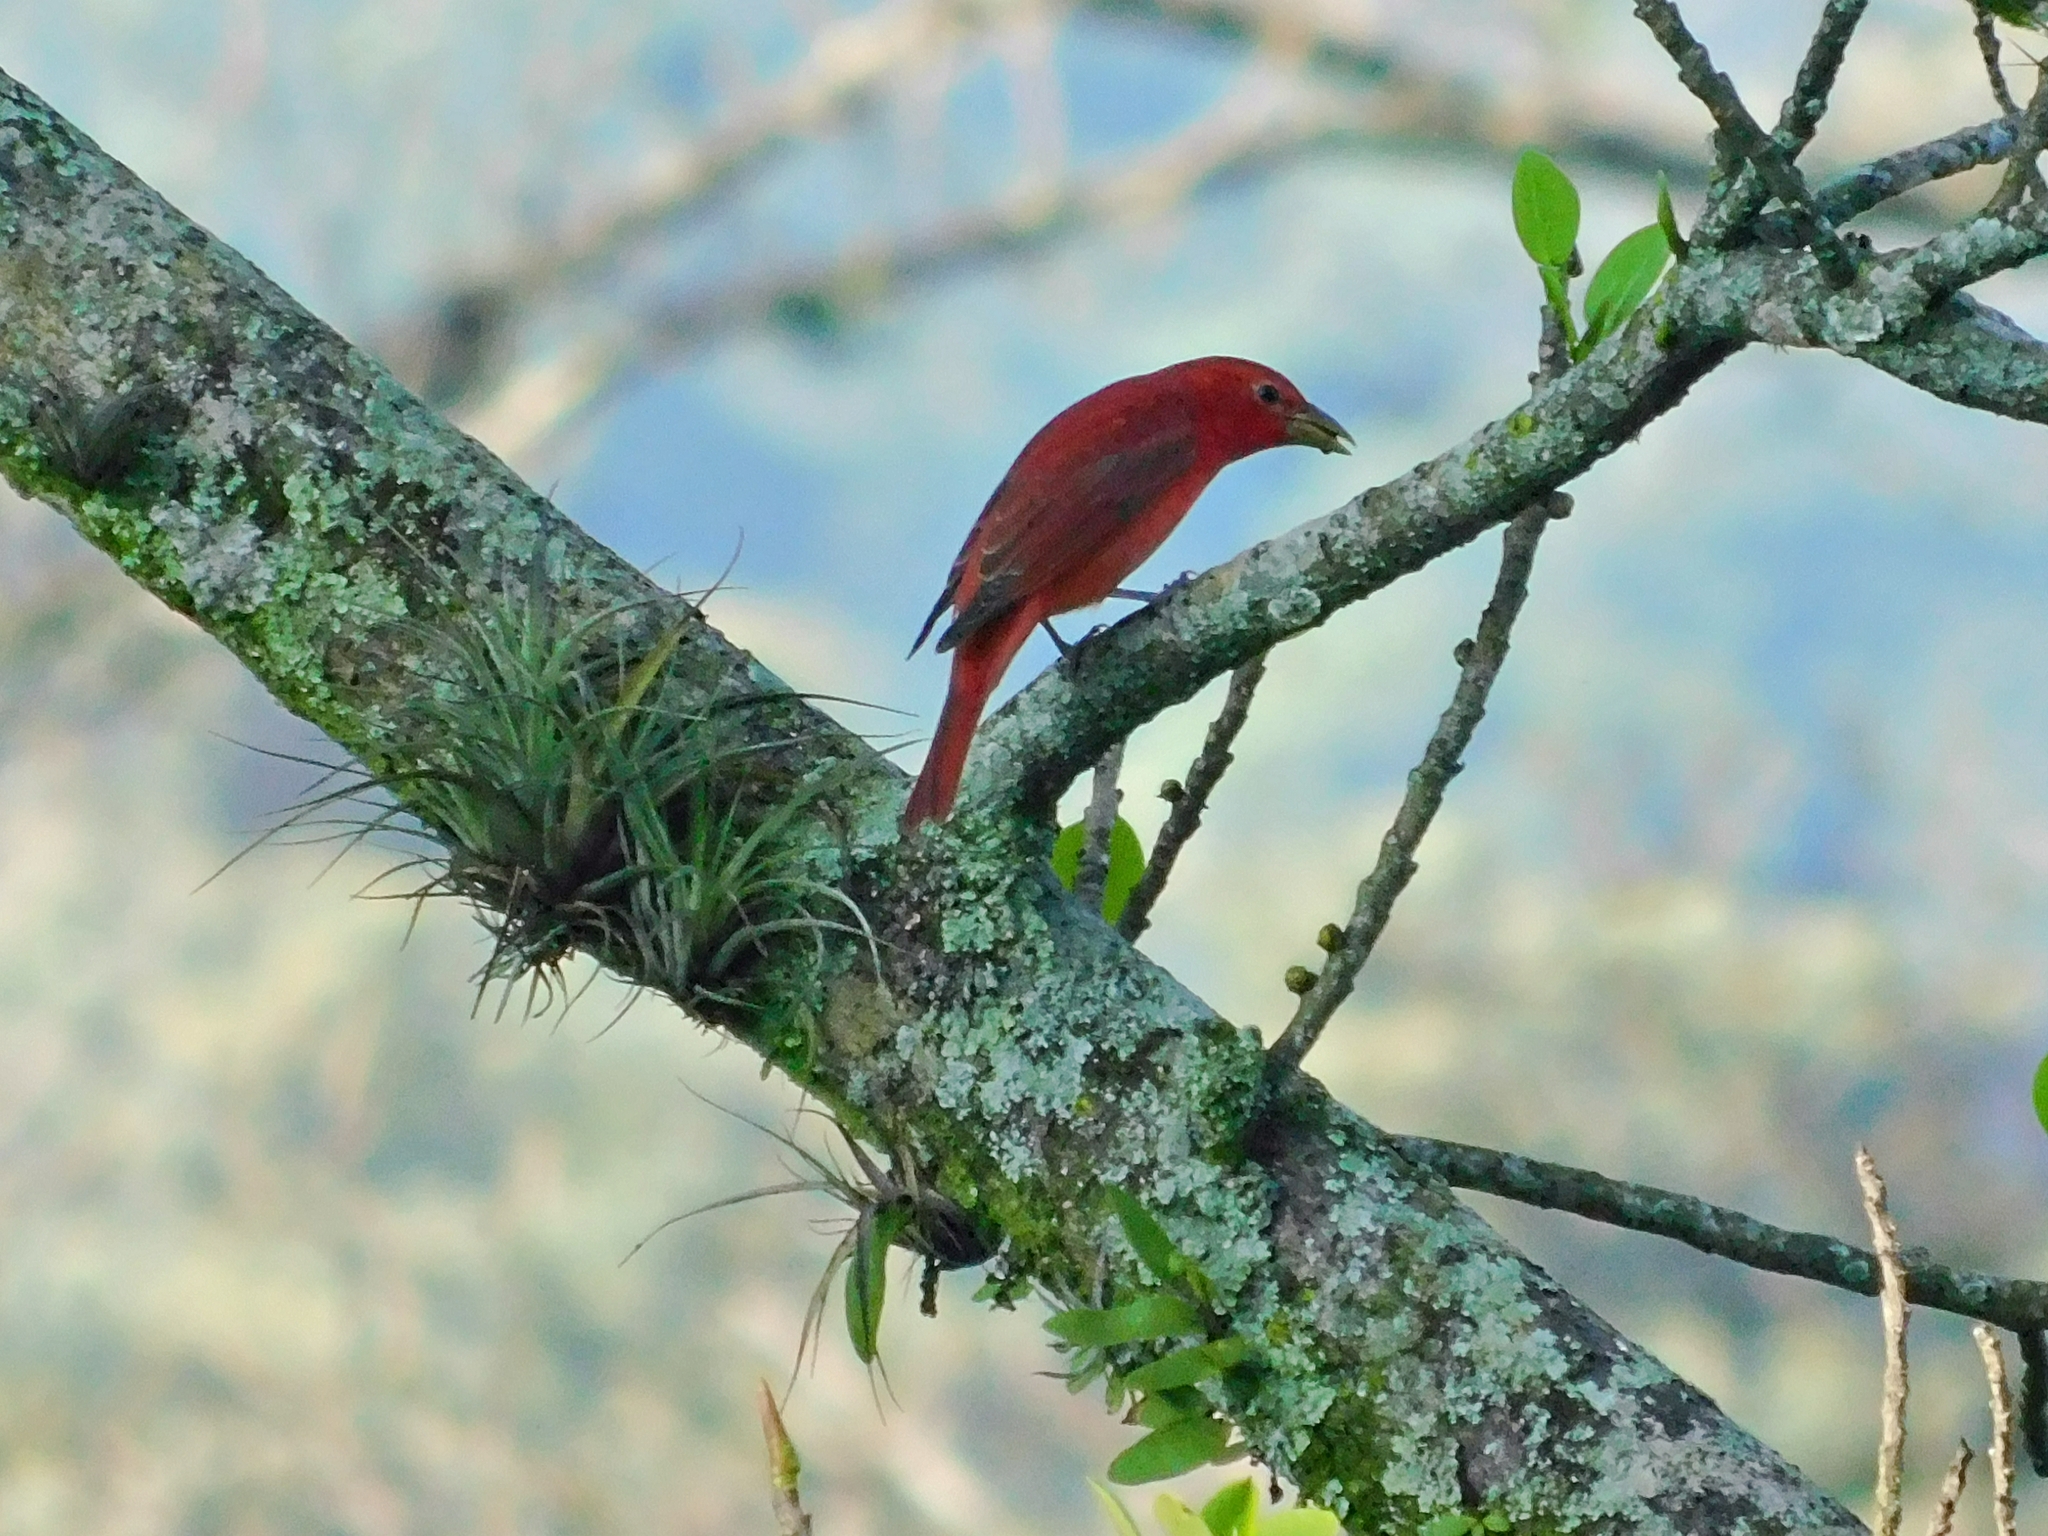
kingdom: Animalia
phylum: Chordata
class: Aves
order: Passeriformes
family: Cardinalidae
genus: Piranga
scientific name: Piranga rubra
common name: Summer tanager
